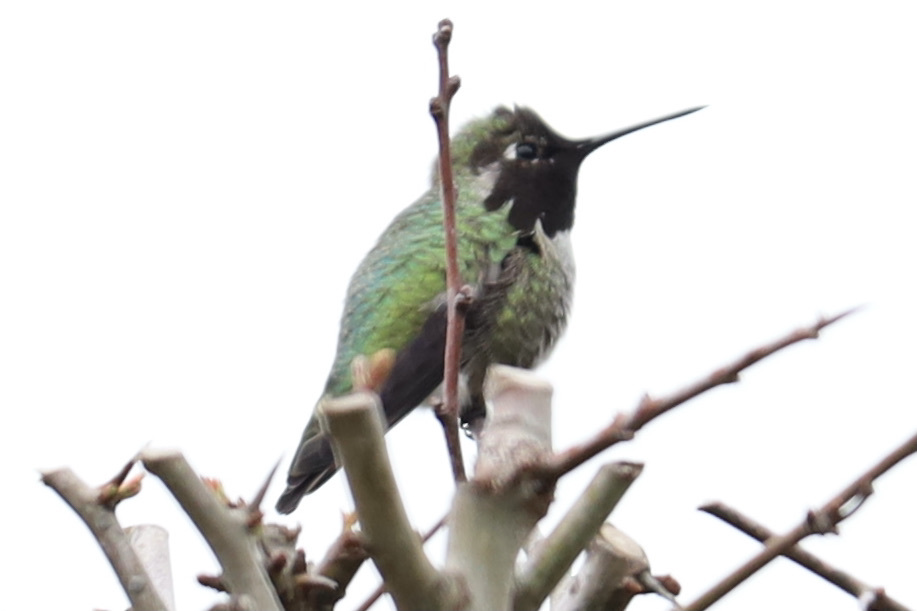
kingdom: Animalia
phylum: Chordata
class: Aves
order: Apodiformes
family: Trochilidae
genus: Calypte
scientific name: Calypte anna
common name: Anna's hummingbird
